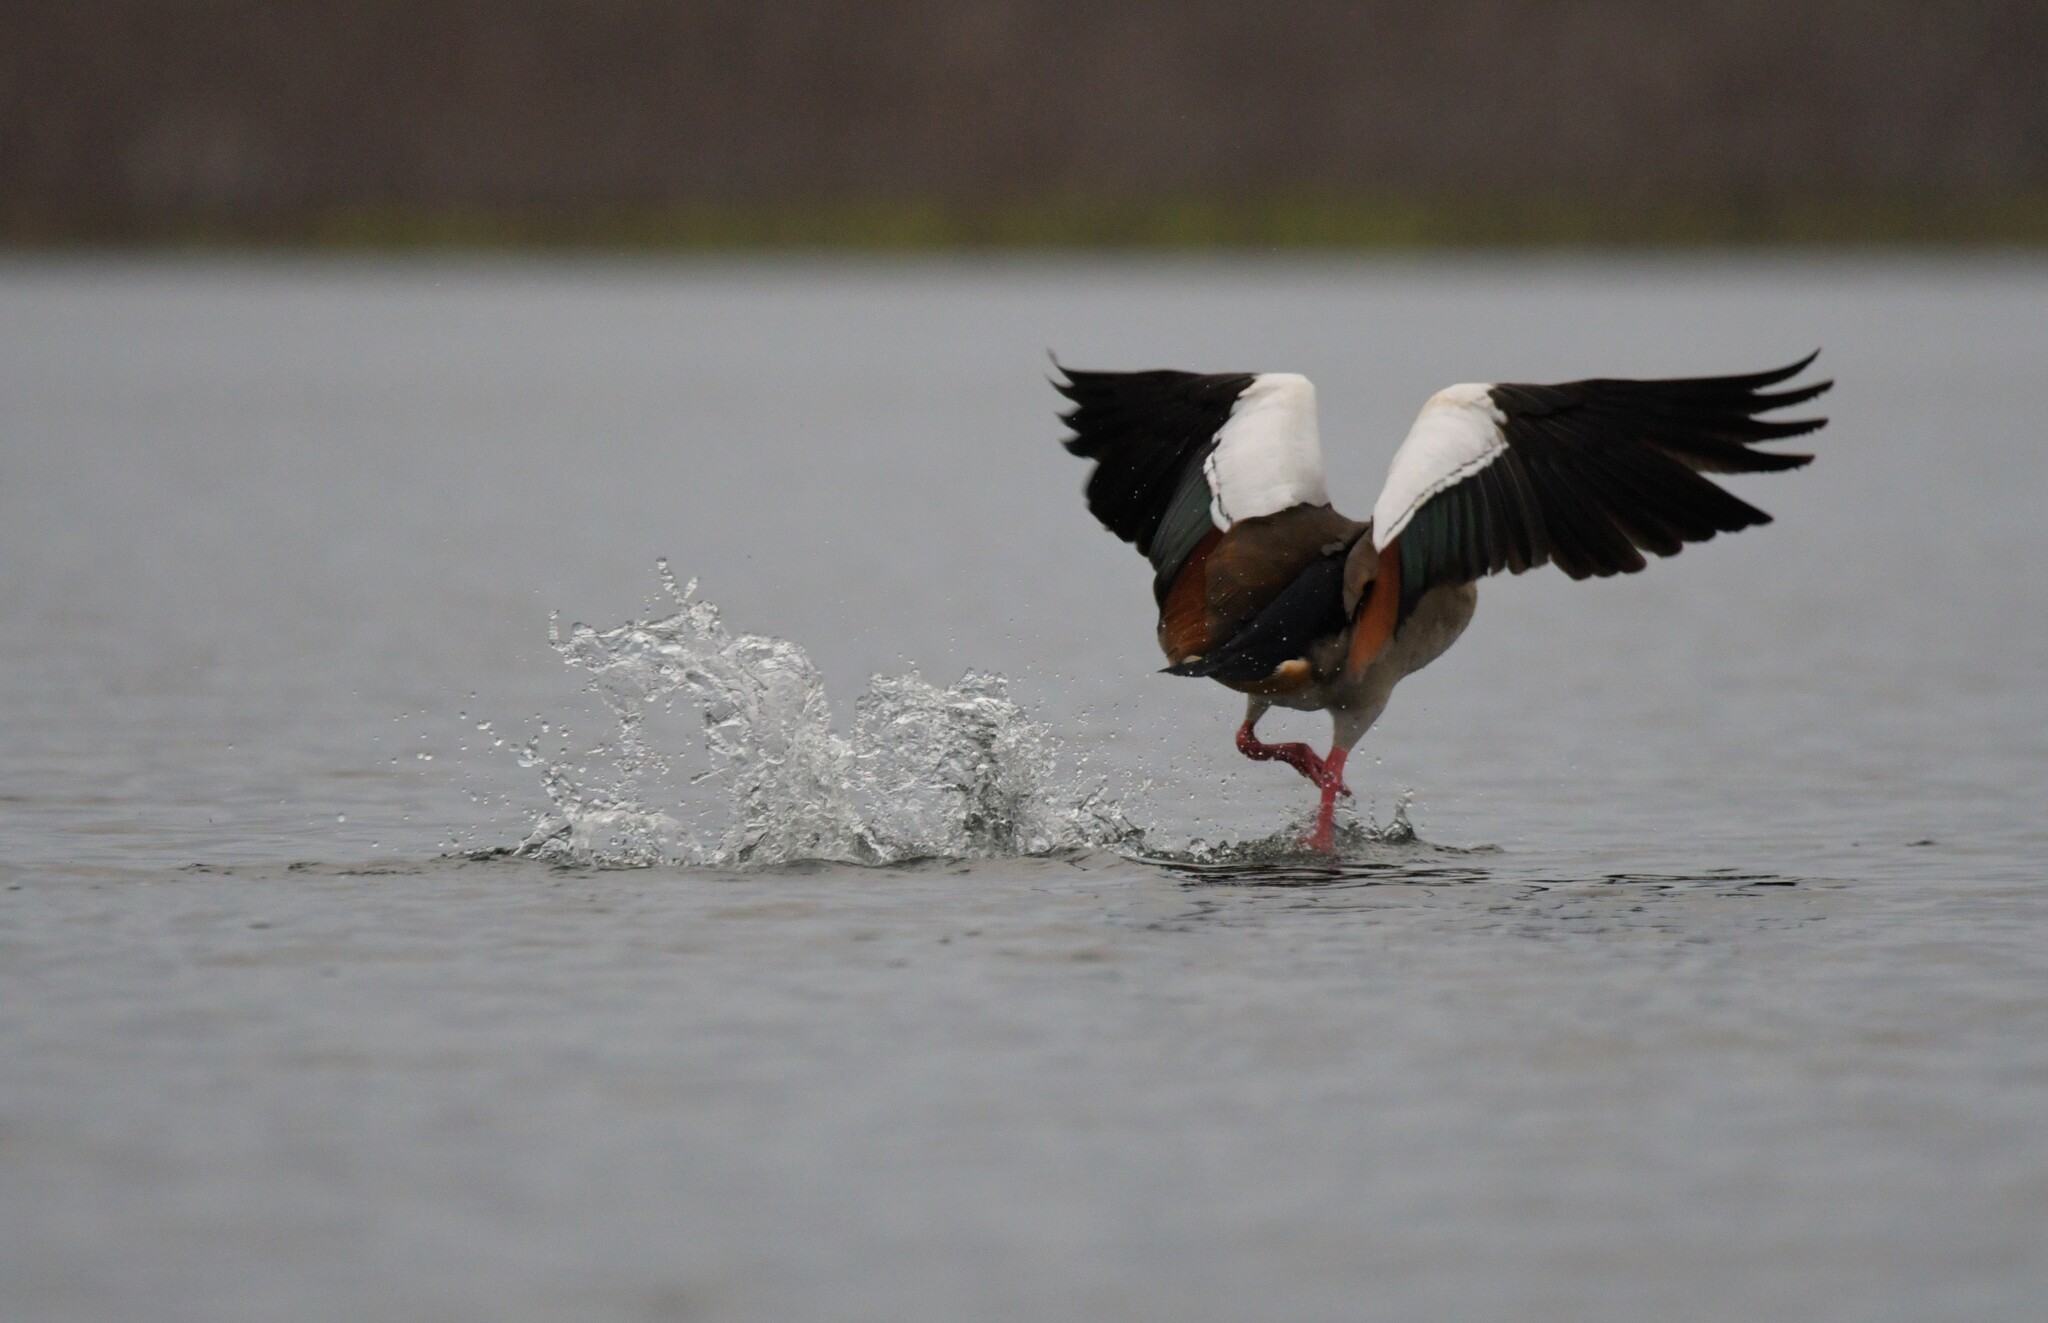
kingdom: Animalia
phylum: Chordata
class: Aves
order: Anseriformes
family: Anatidae
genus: Alopochen
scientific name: Alopochen aegyptiaca
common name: Egyptian goose
